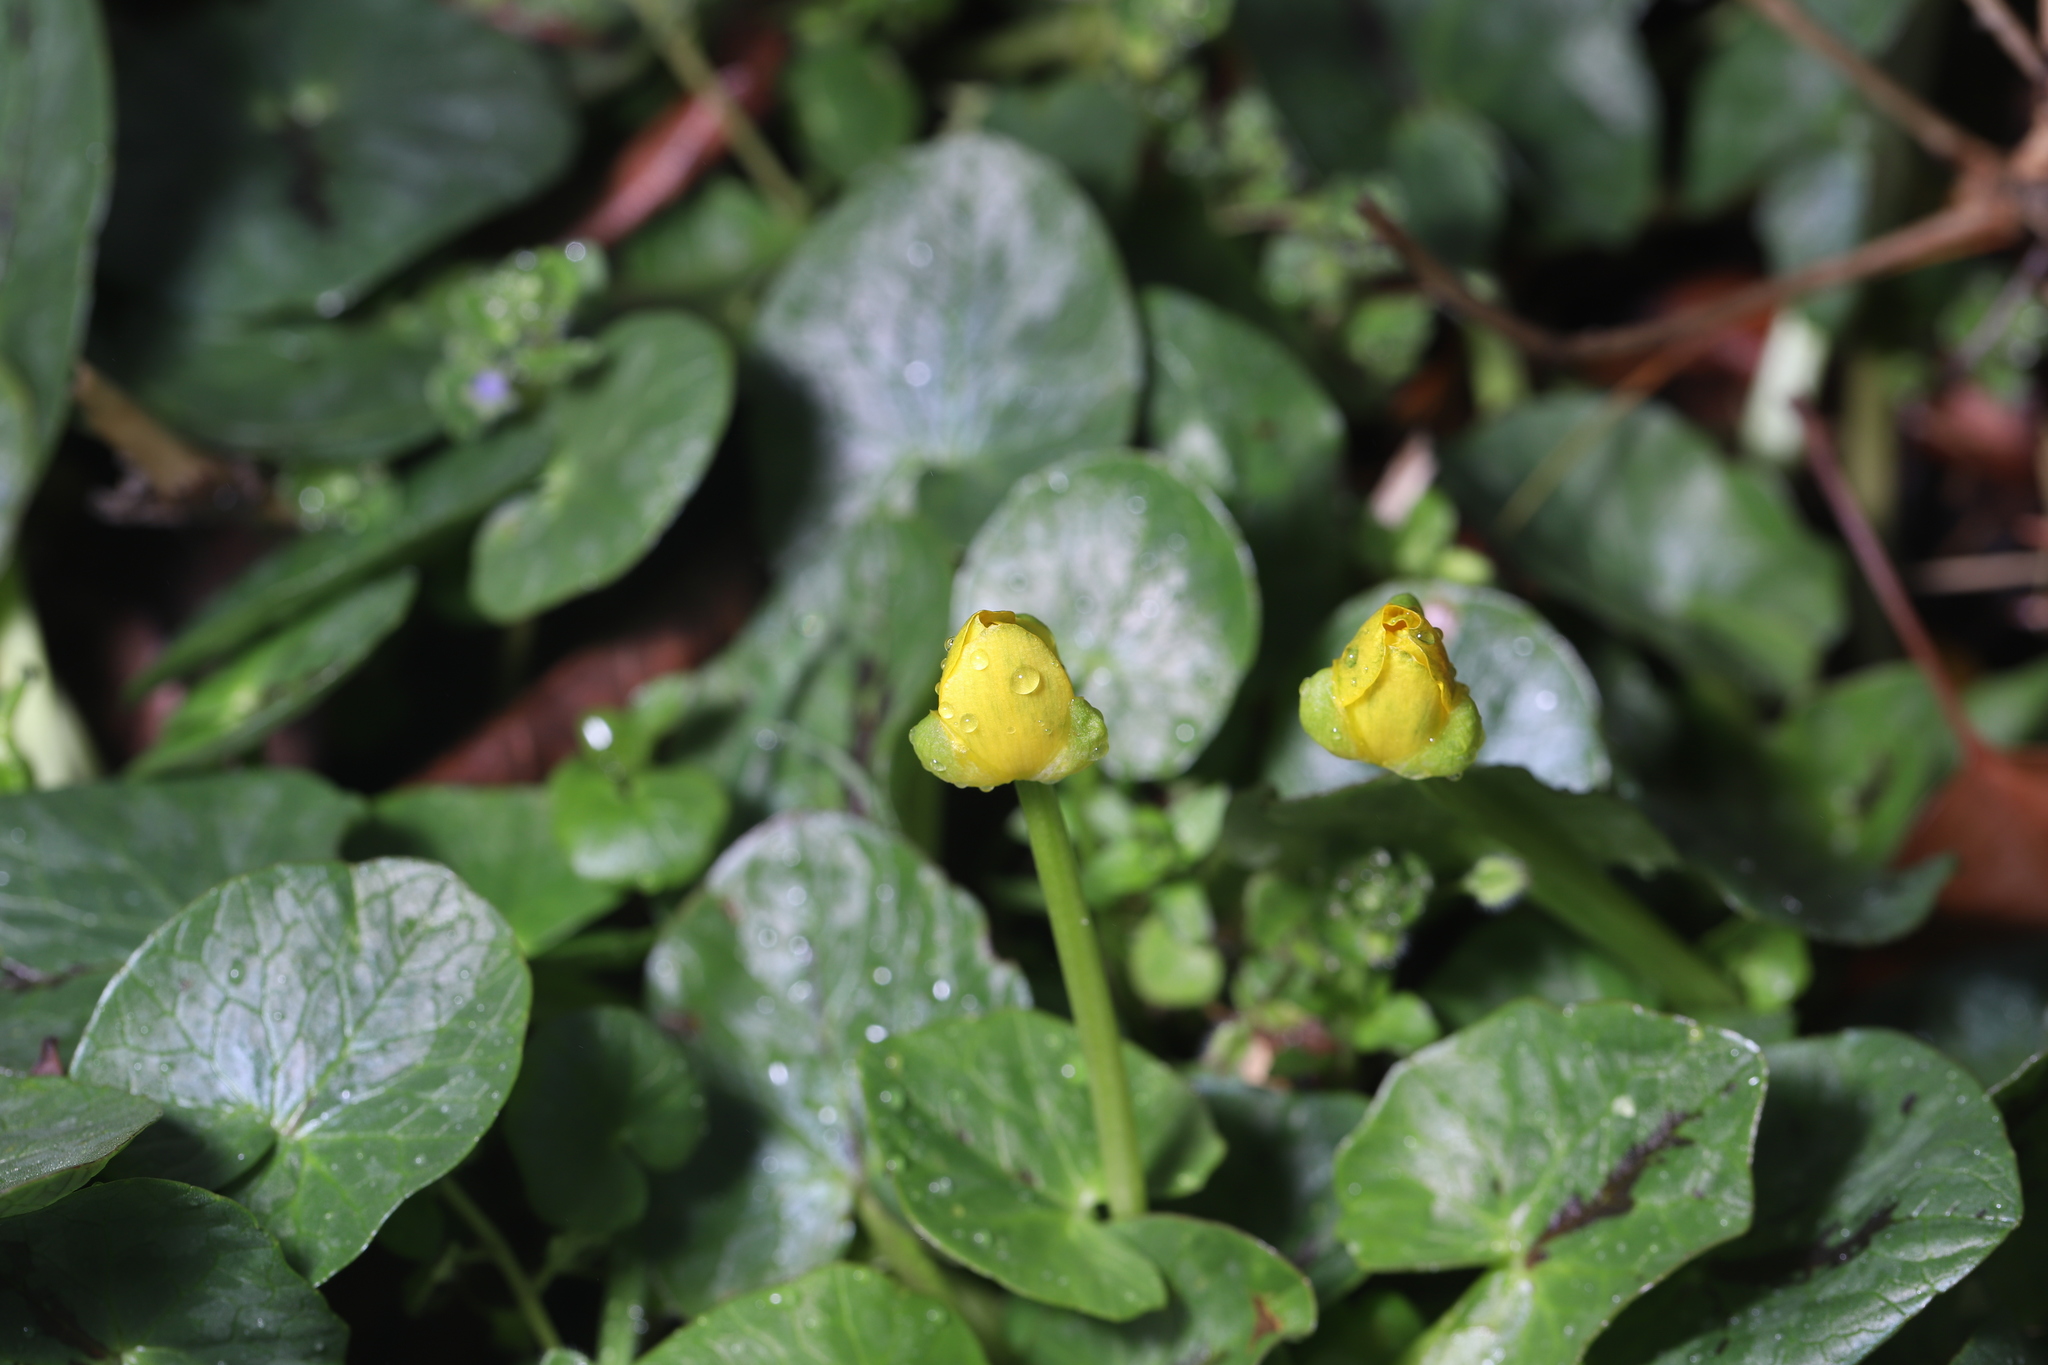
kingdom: Plantae
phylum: Tracheophyta
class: Magnoliopsida
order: Ranunculales
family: Ranunculaceae
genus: Ficaria
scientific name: Ficaria verna
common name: Lesser celandine
